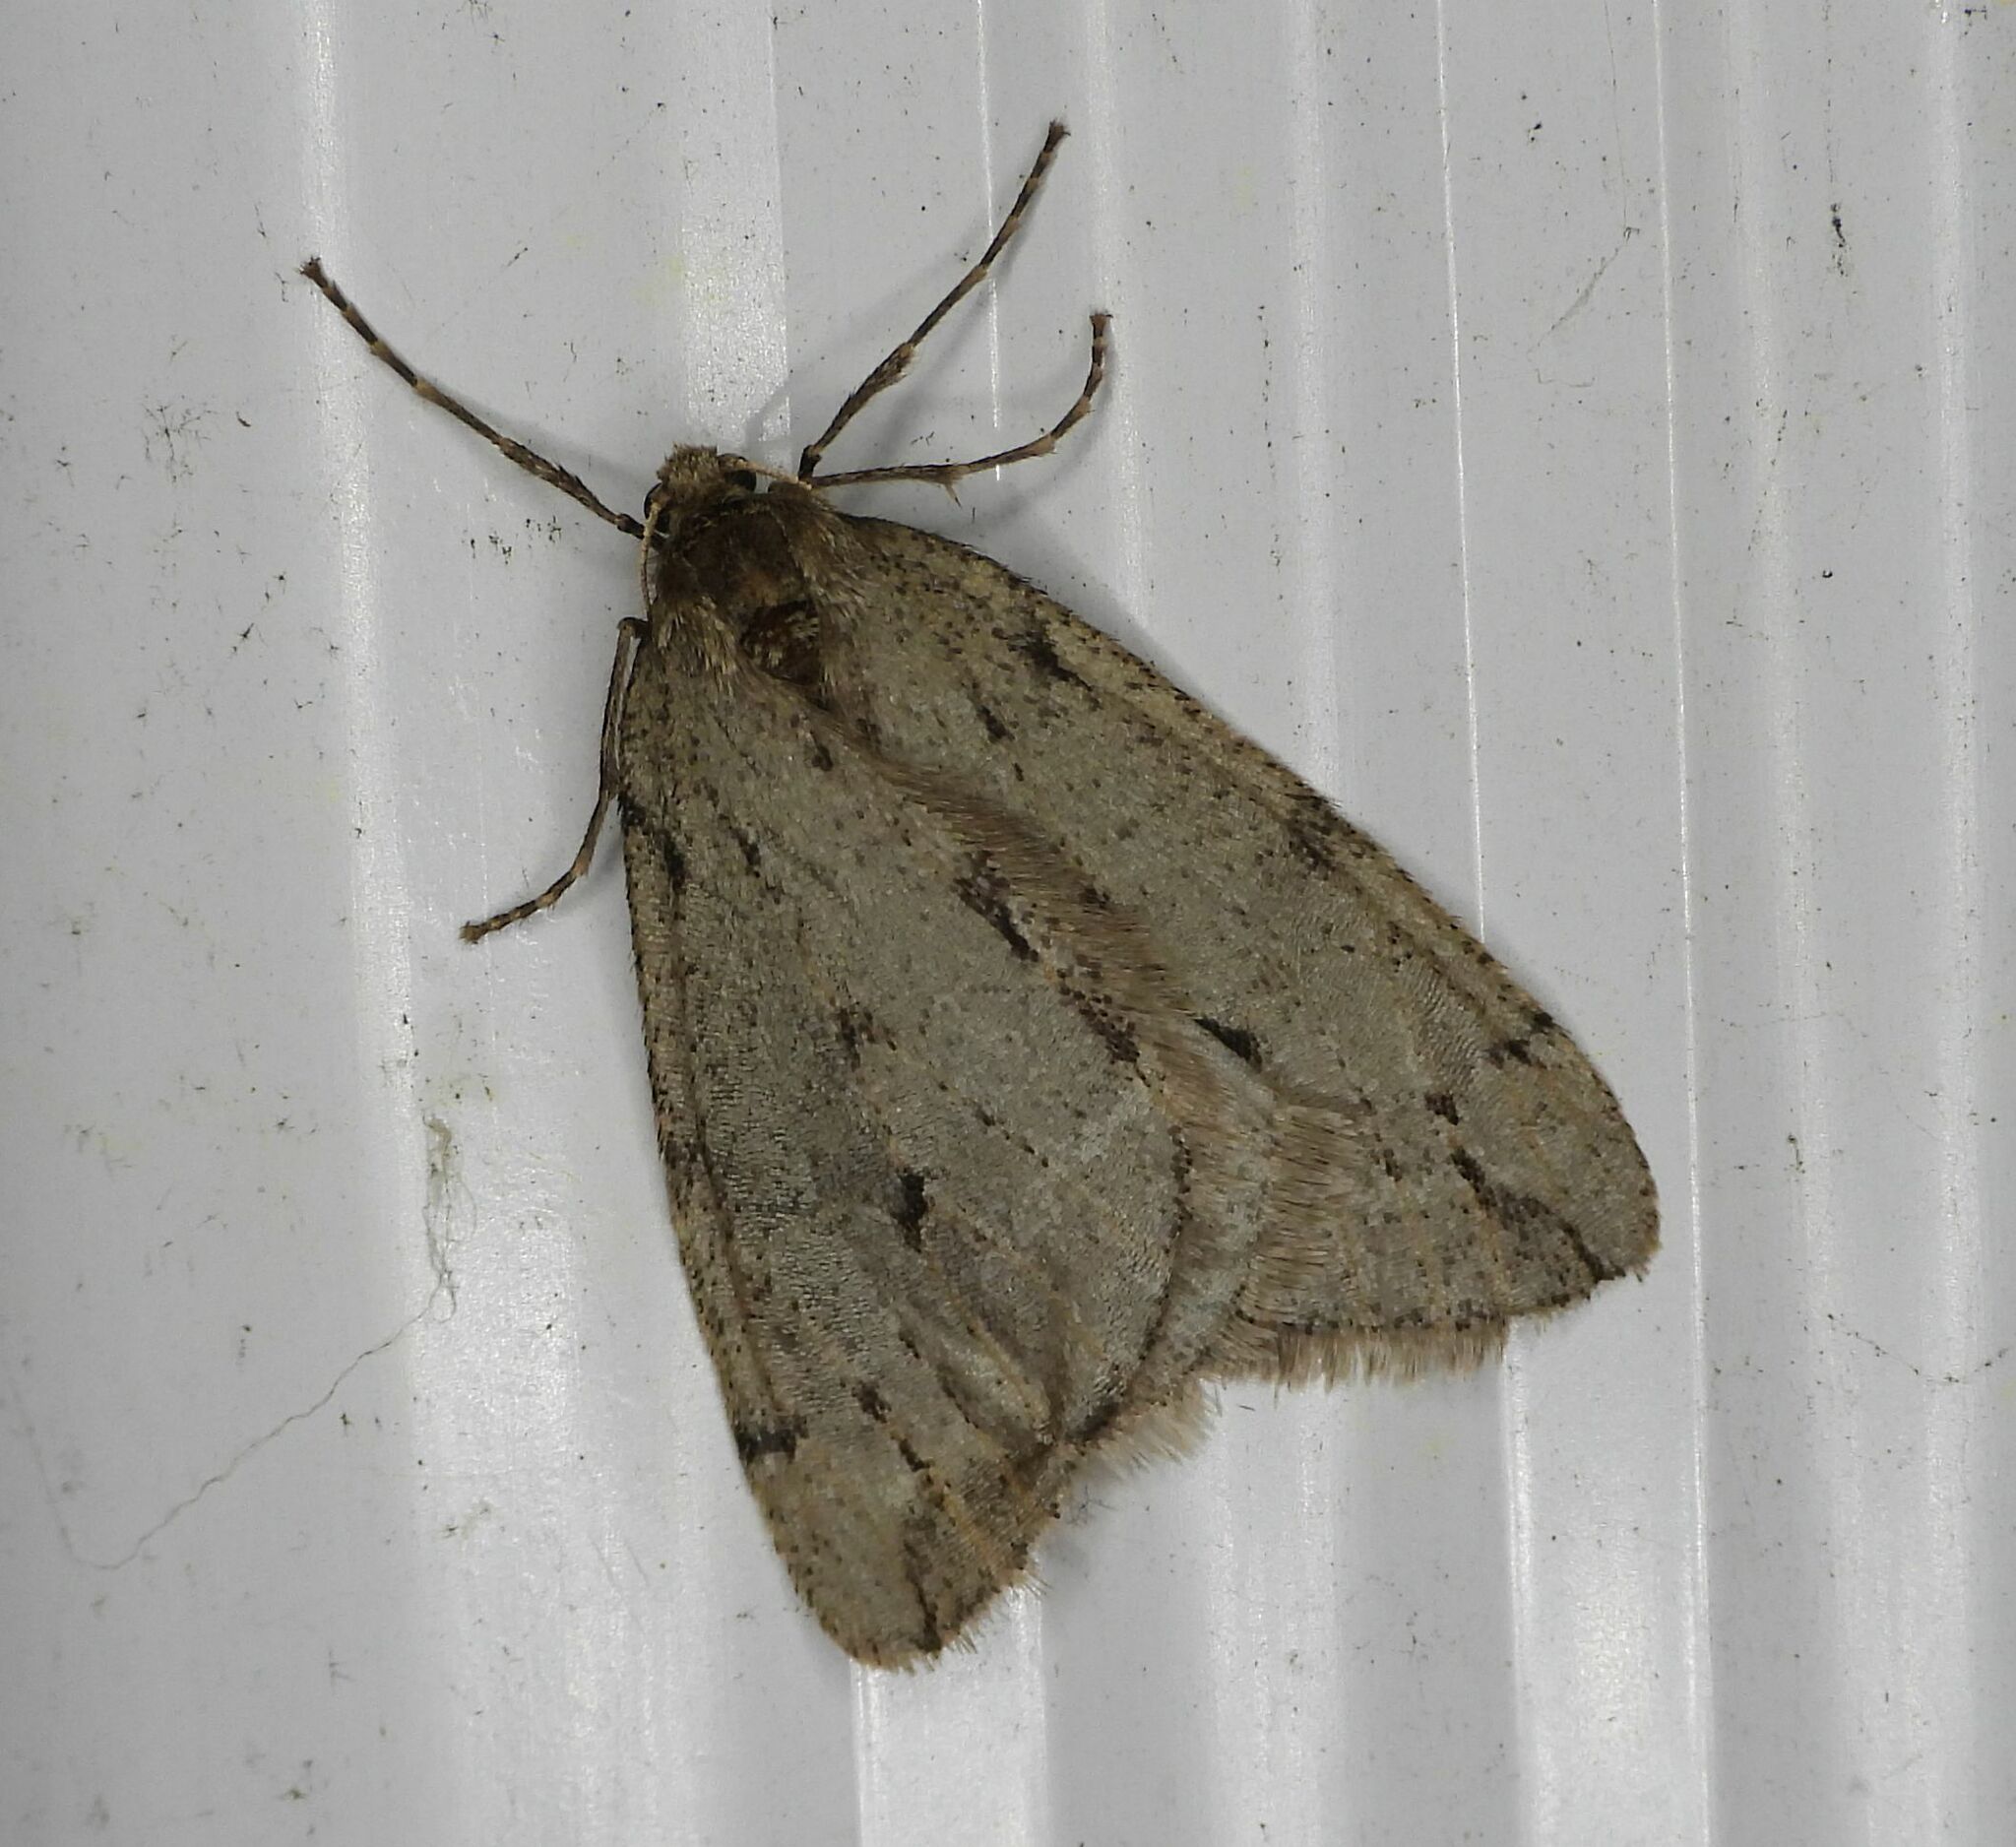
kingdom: Animalia
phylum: Arthropoda
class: Insecta
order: Lepidoptera
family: Geometridae
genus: Paleacrita
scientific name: Paleacrita vernata
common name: Spring cankerworm
